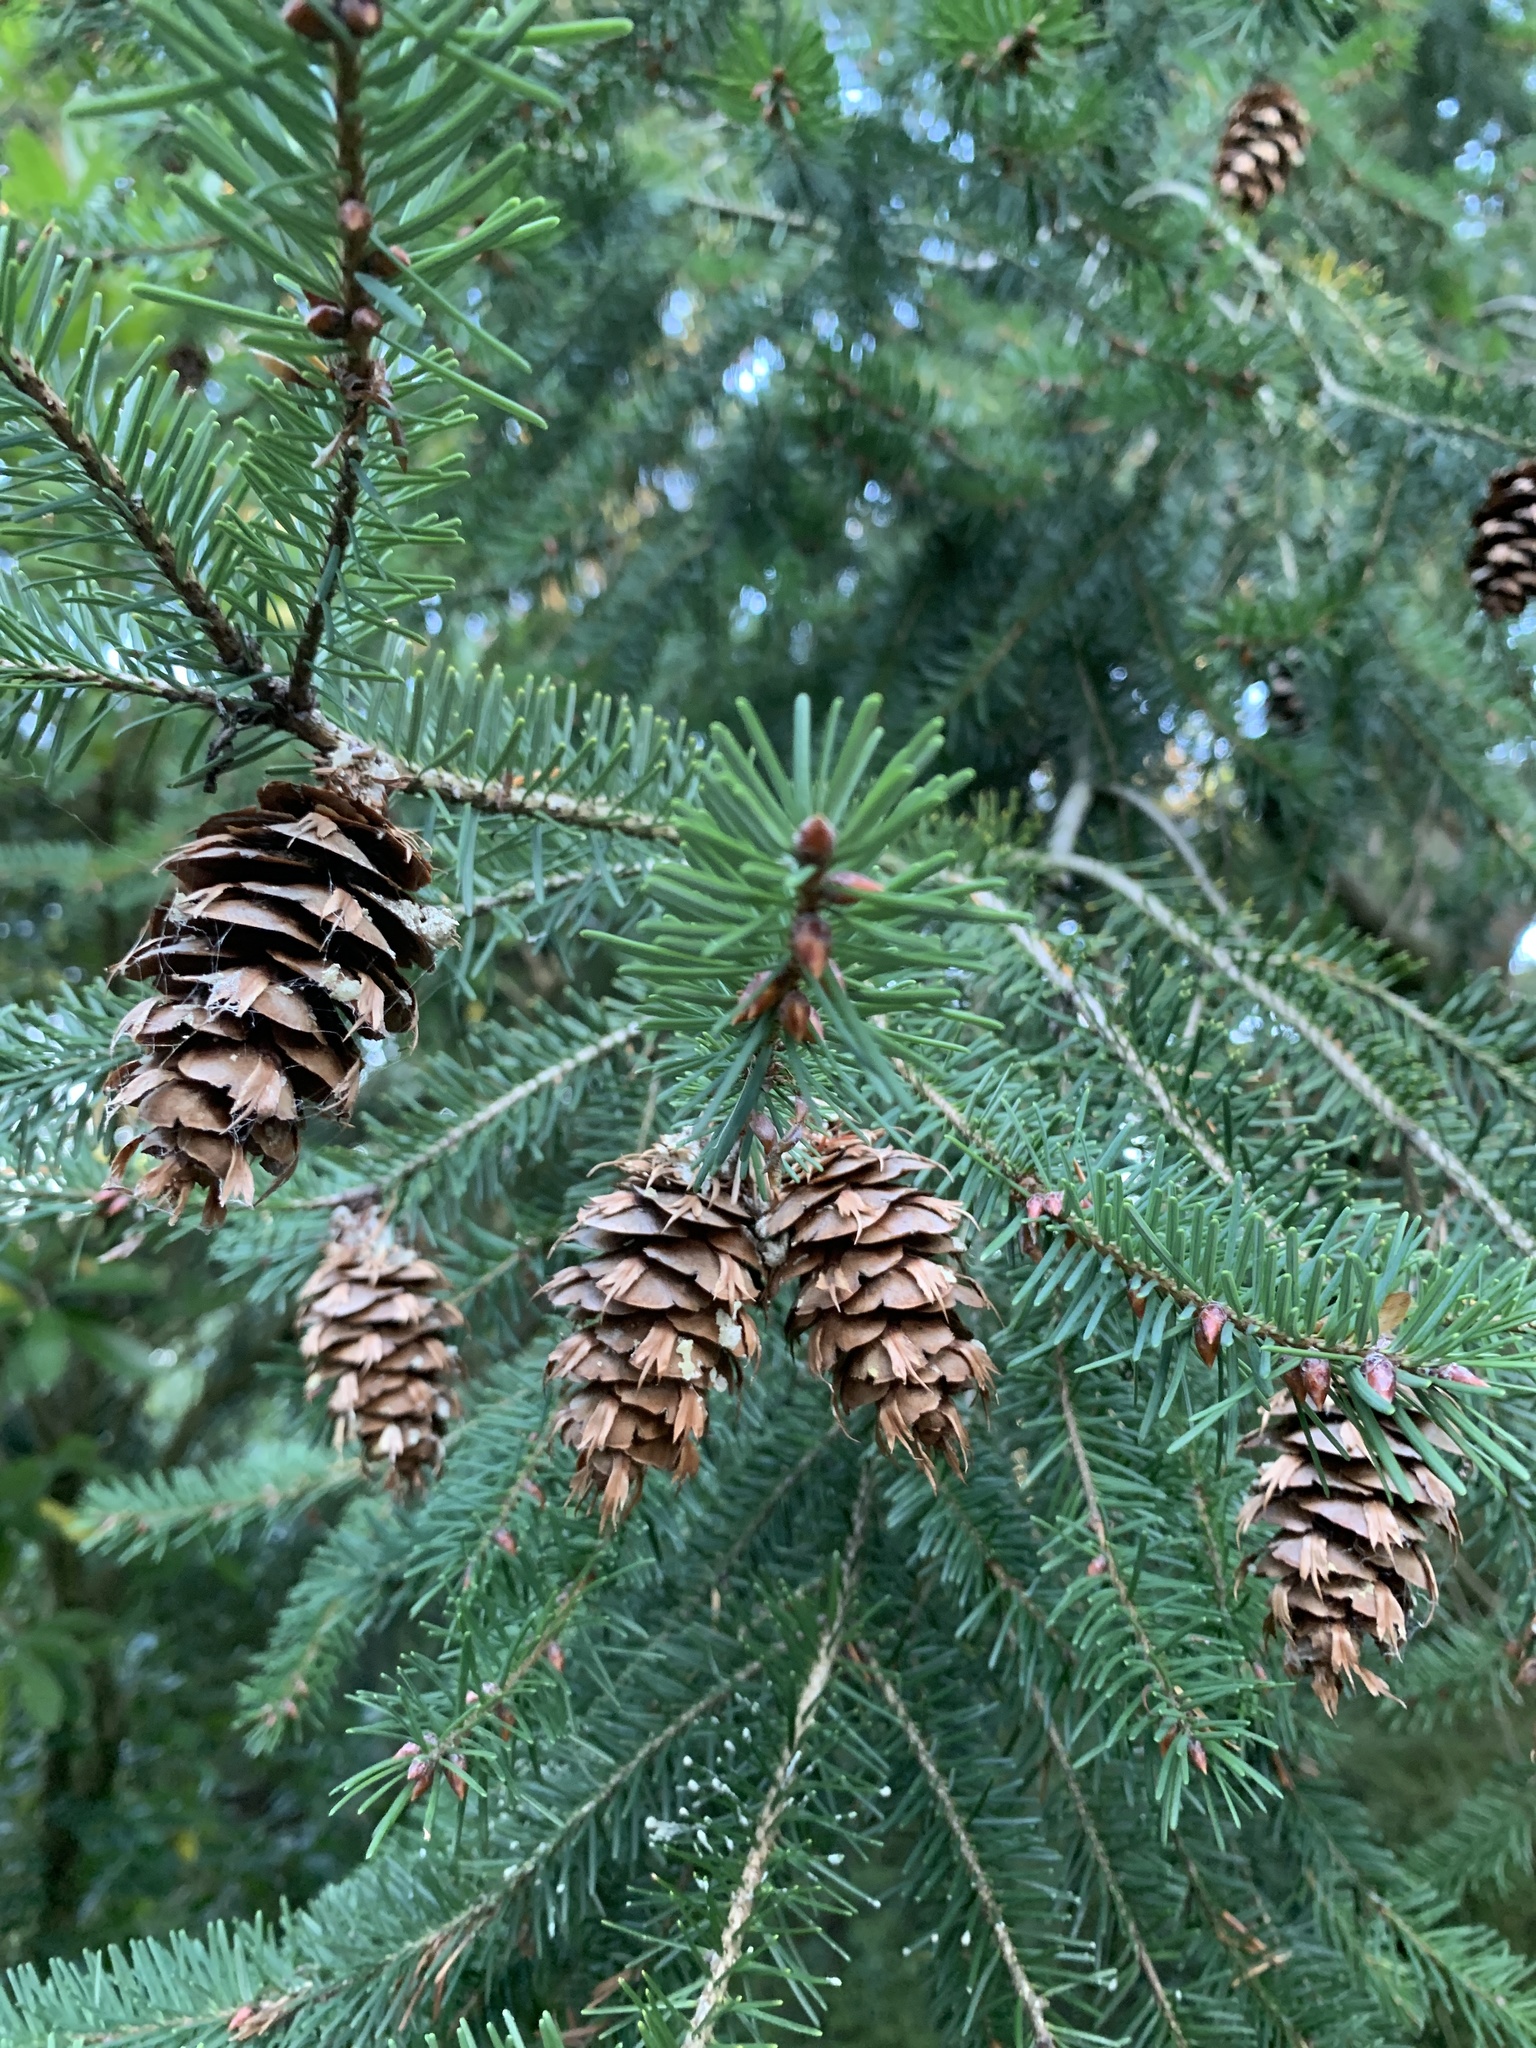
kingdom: Plantae
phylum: Tracheophyta
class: Pinopsida
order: Pinales
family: Pinaceae
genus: Pseudotsuga
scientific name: Pseudotsuga menziesii
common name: Douglas fir
